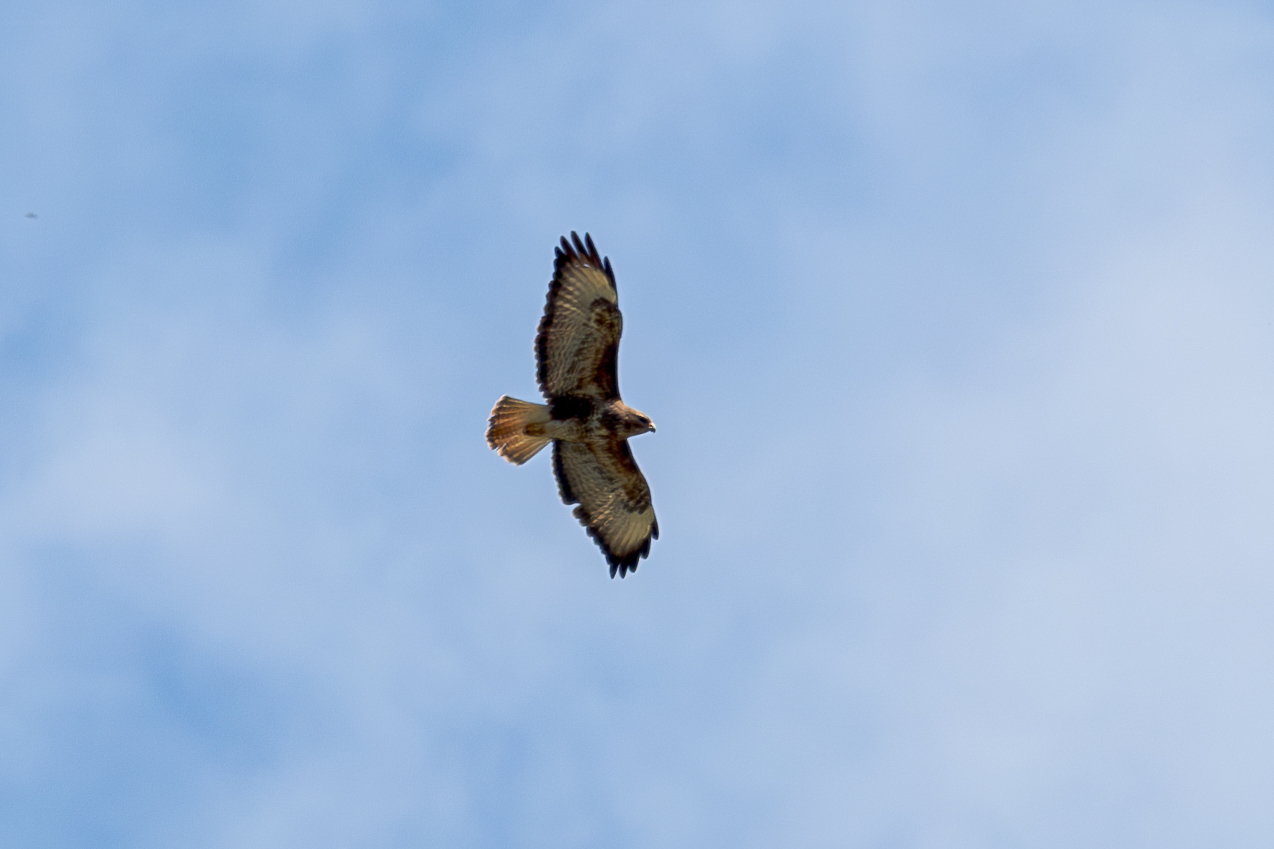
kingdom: Animalia
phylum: Chordata
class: Aves
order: Accipitriformes
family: Accipitridae
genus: Buteo
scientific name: Buteo buteo
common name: Common buzzard
